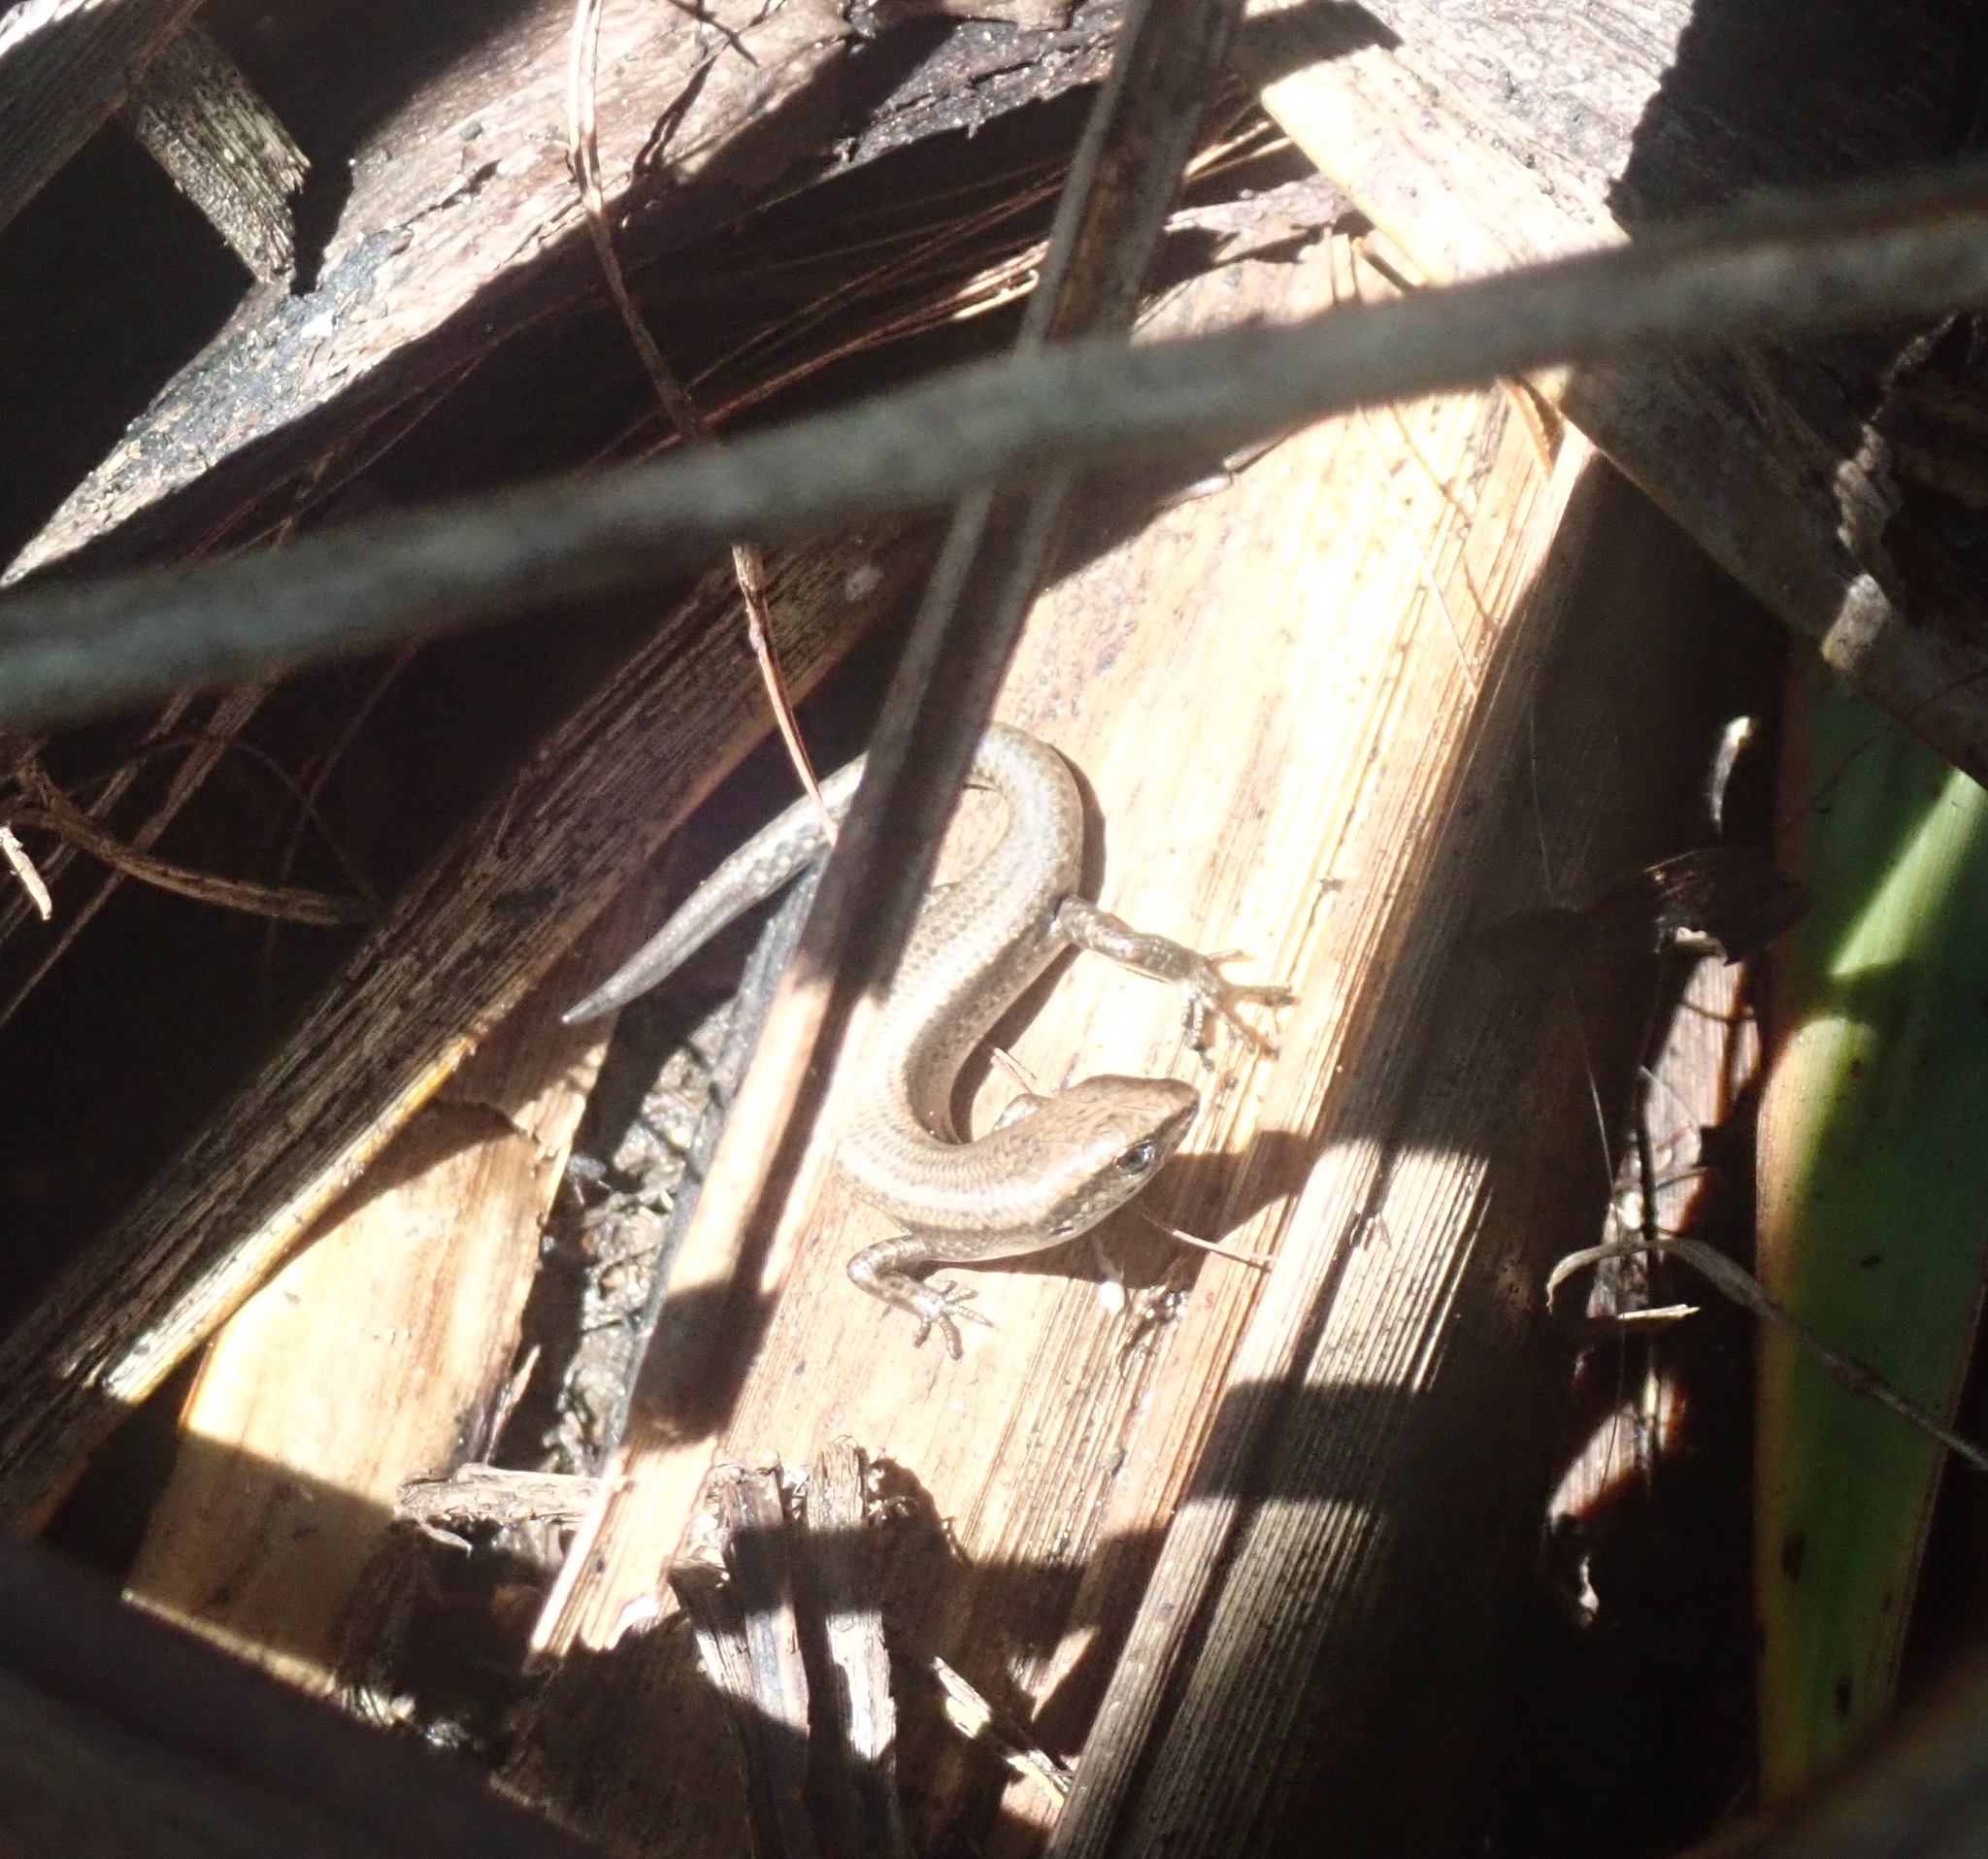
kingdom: Animalia
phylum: Chordata
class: Squamata
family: Scincidae
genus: Lampropholis
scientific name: Lampropholis delicata
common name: Plague skink
